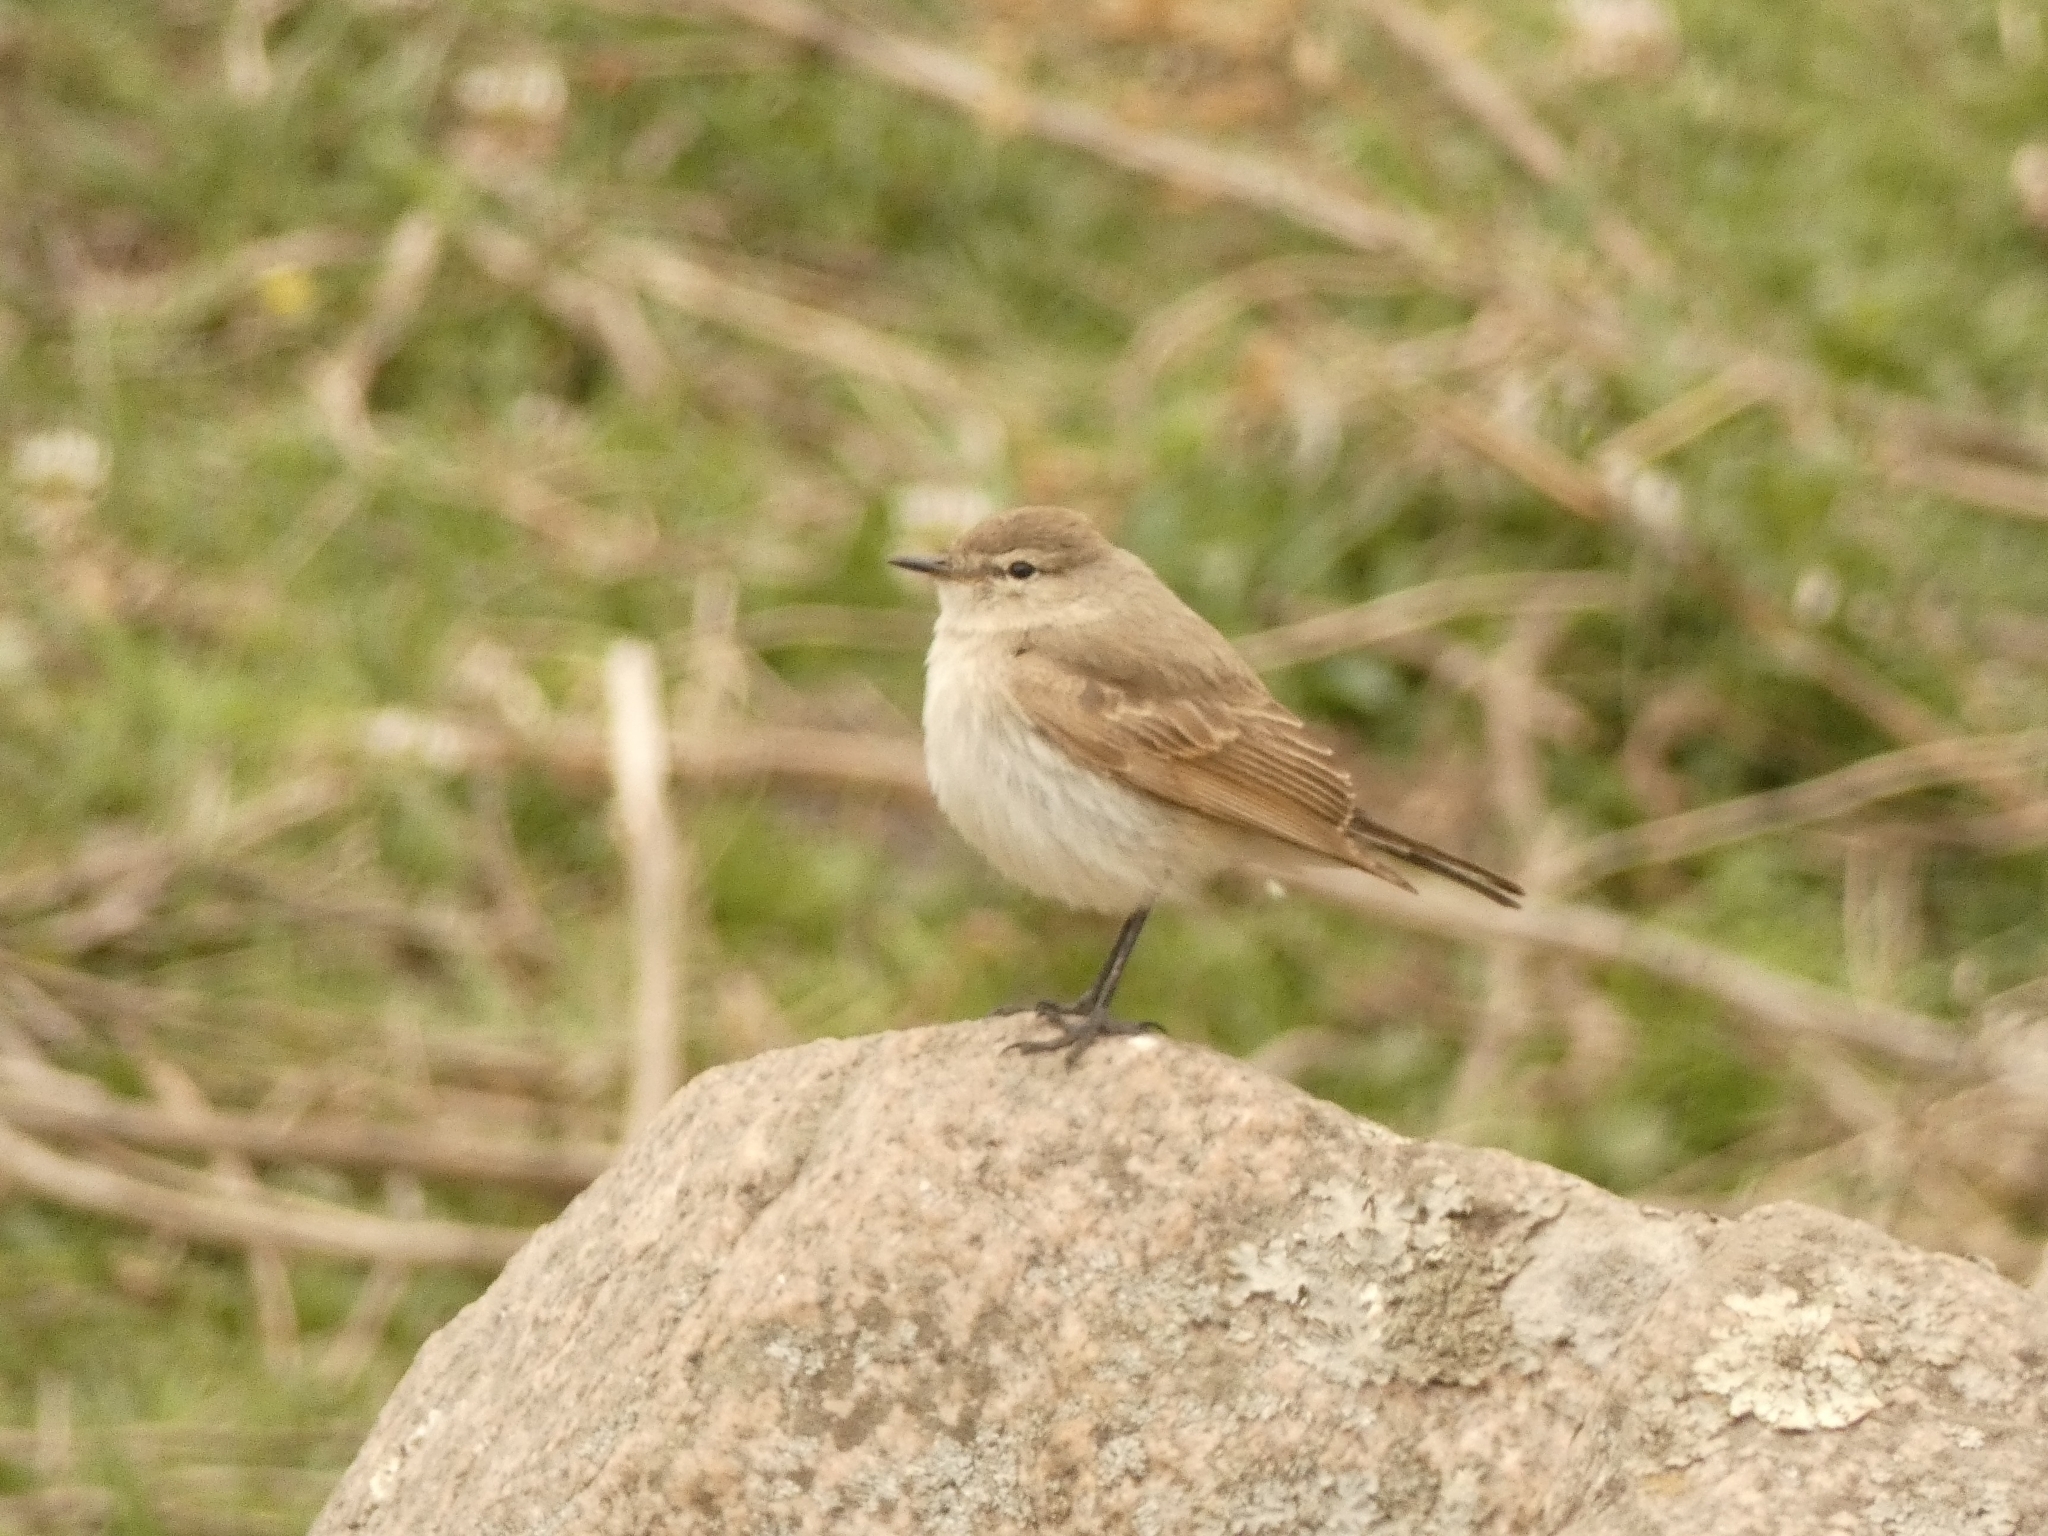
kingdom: Animalia
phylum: Chordata
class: Aves
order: Passeriformes
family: Tyrannidae
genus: Muscisaxicola
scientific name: Muscisaxicola maculirostris
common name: Spot-billed ground tyrant
